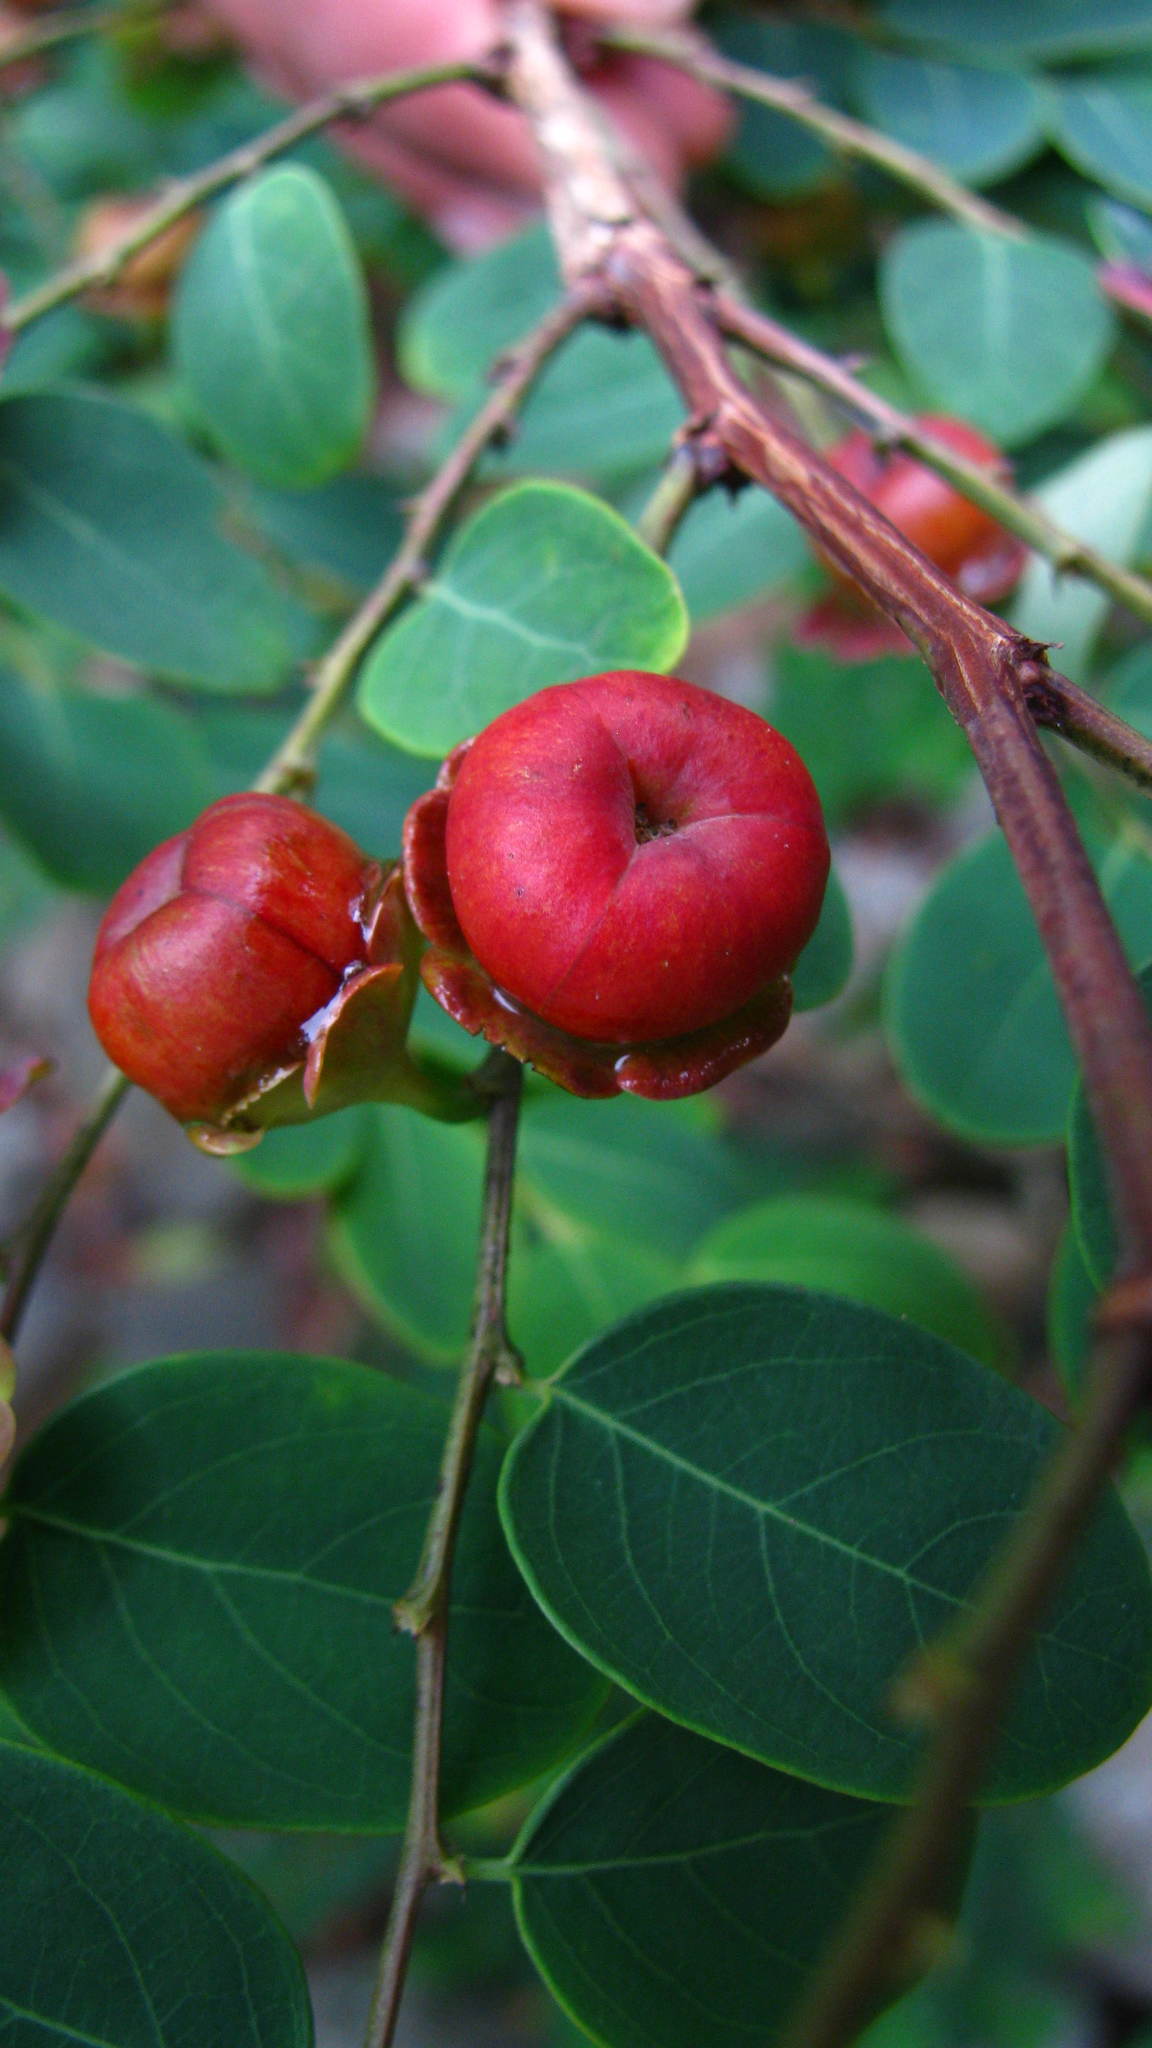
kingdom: Plantae
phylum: Tracheophyta
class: Magnoliopsida
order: Malpighiales
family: Phyllanthaceae
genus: Breynia
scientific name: Breynia retusa
